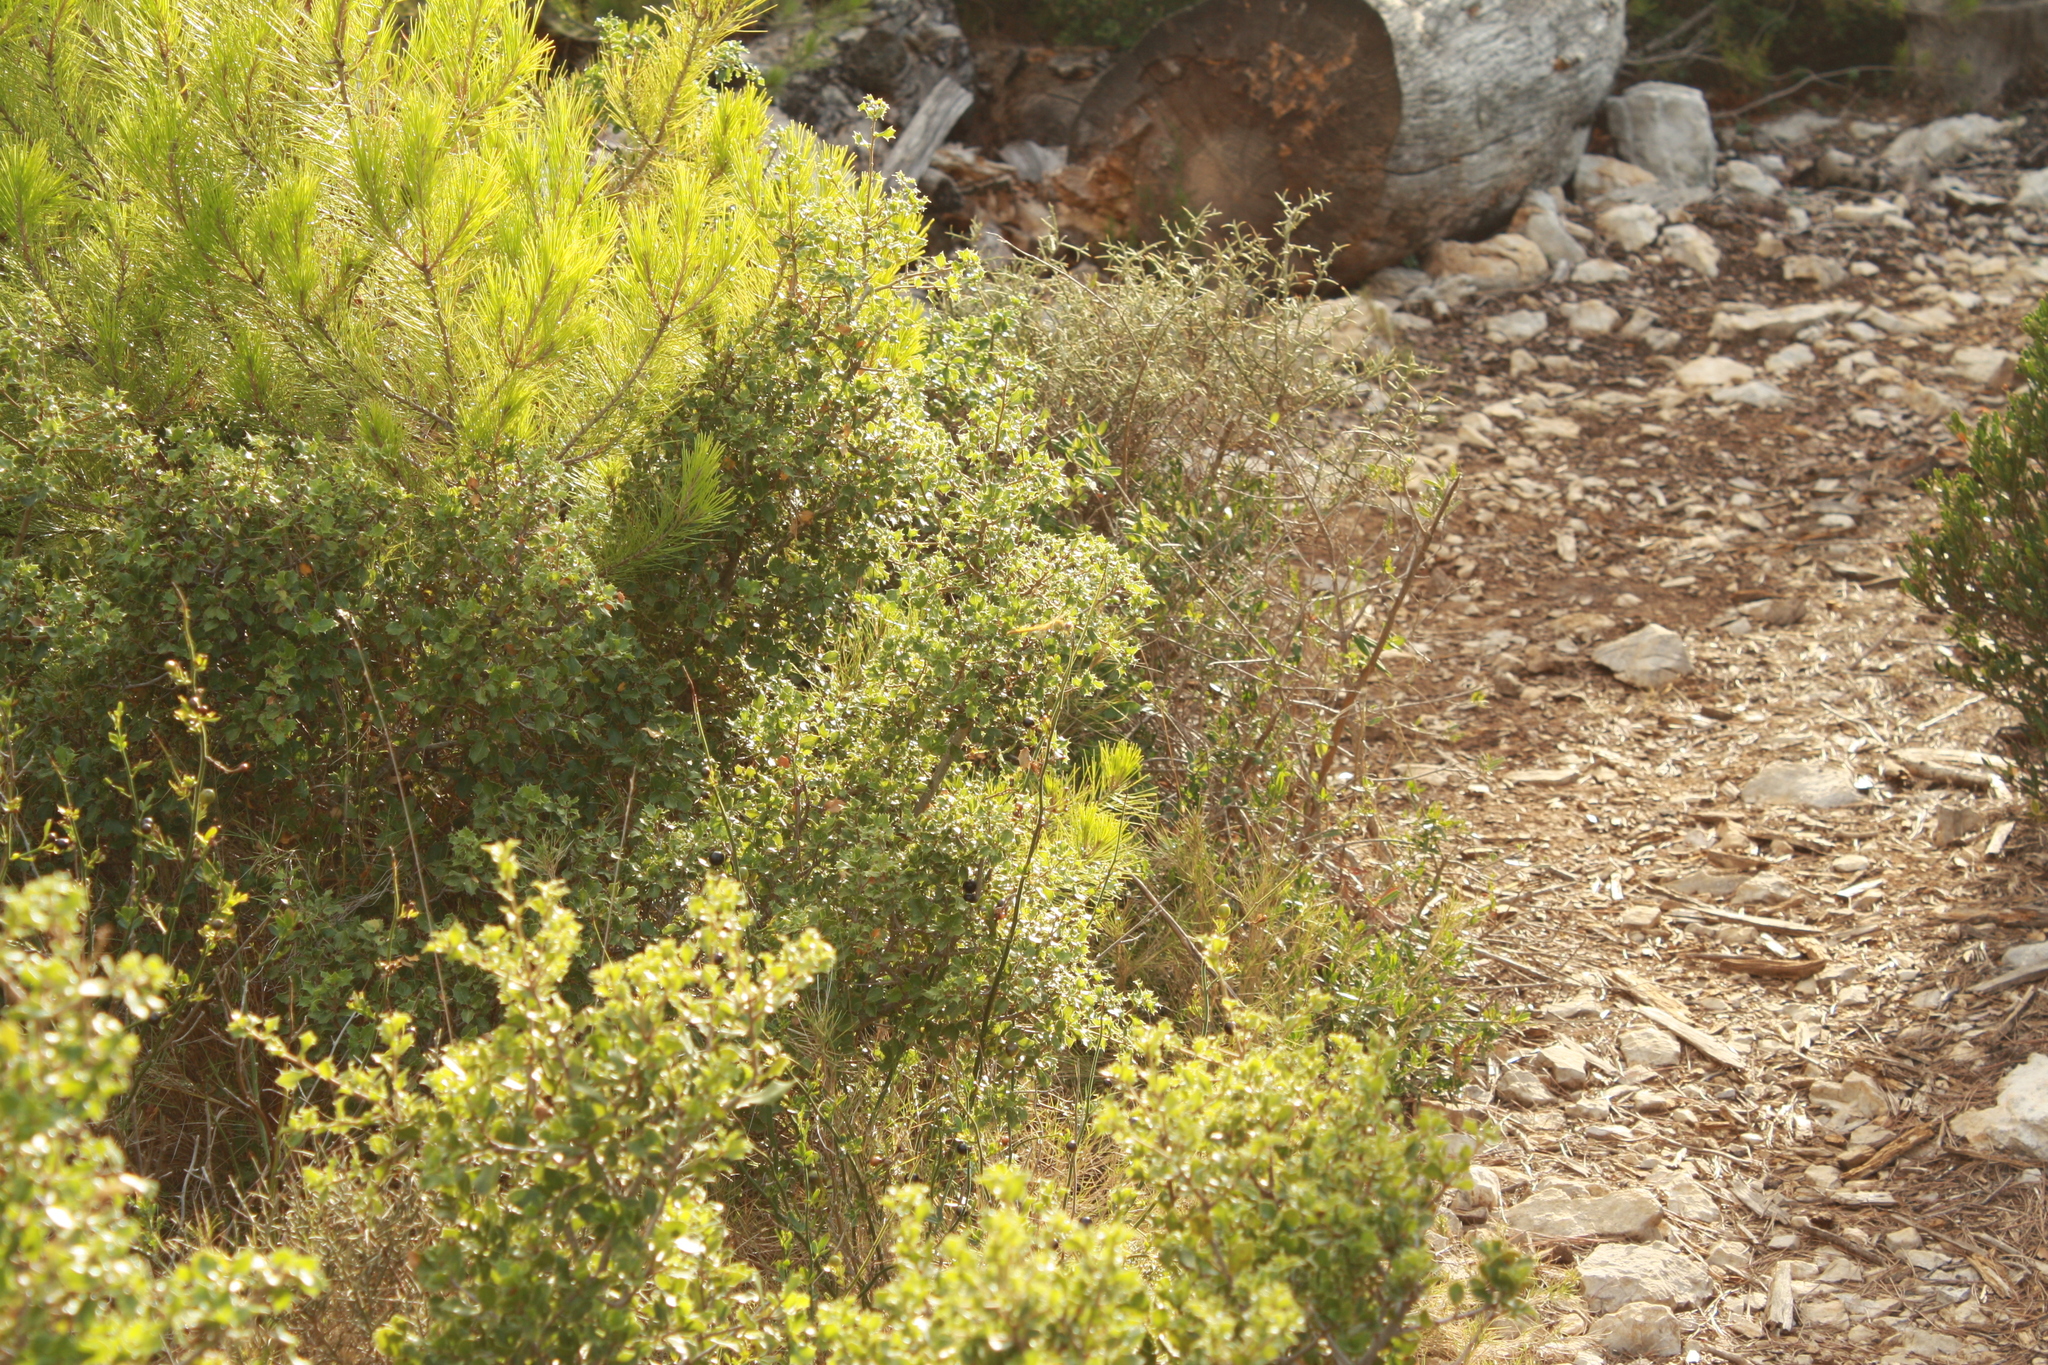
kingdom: Animalia
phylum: Arthropoda
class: Insecta
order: Odonata
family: Libellulidae
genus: Sympetrum
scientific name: Sympetrum fonscolombii
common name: Red-veined darter
